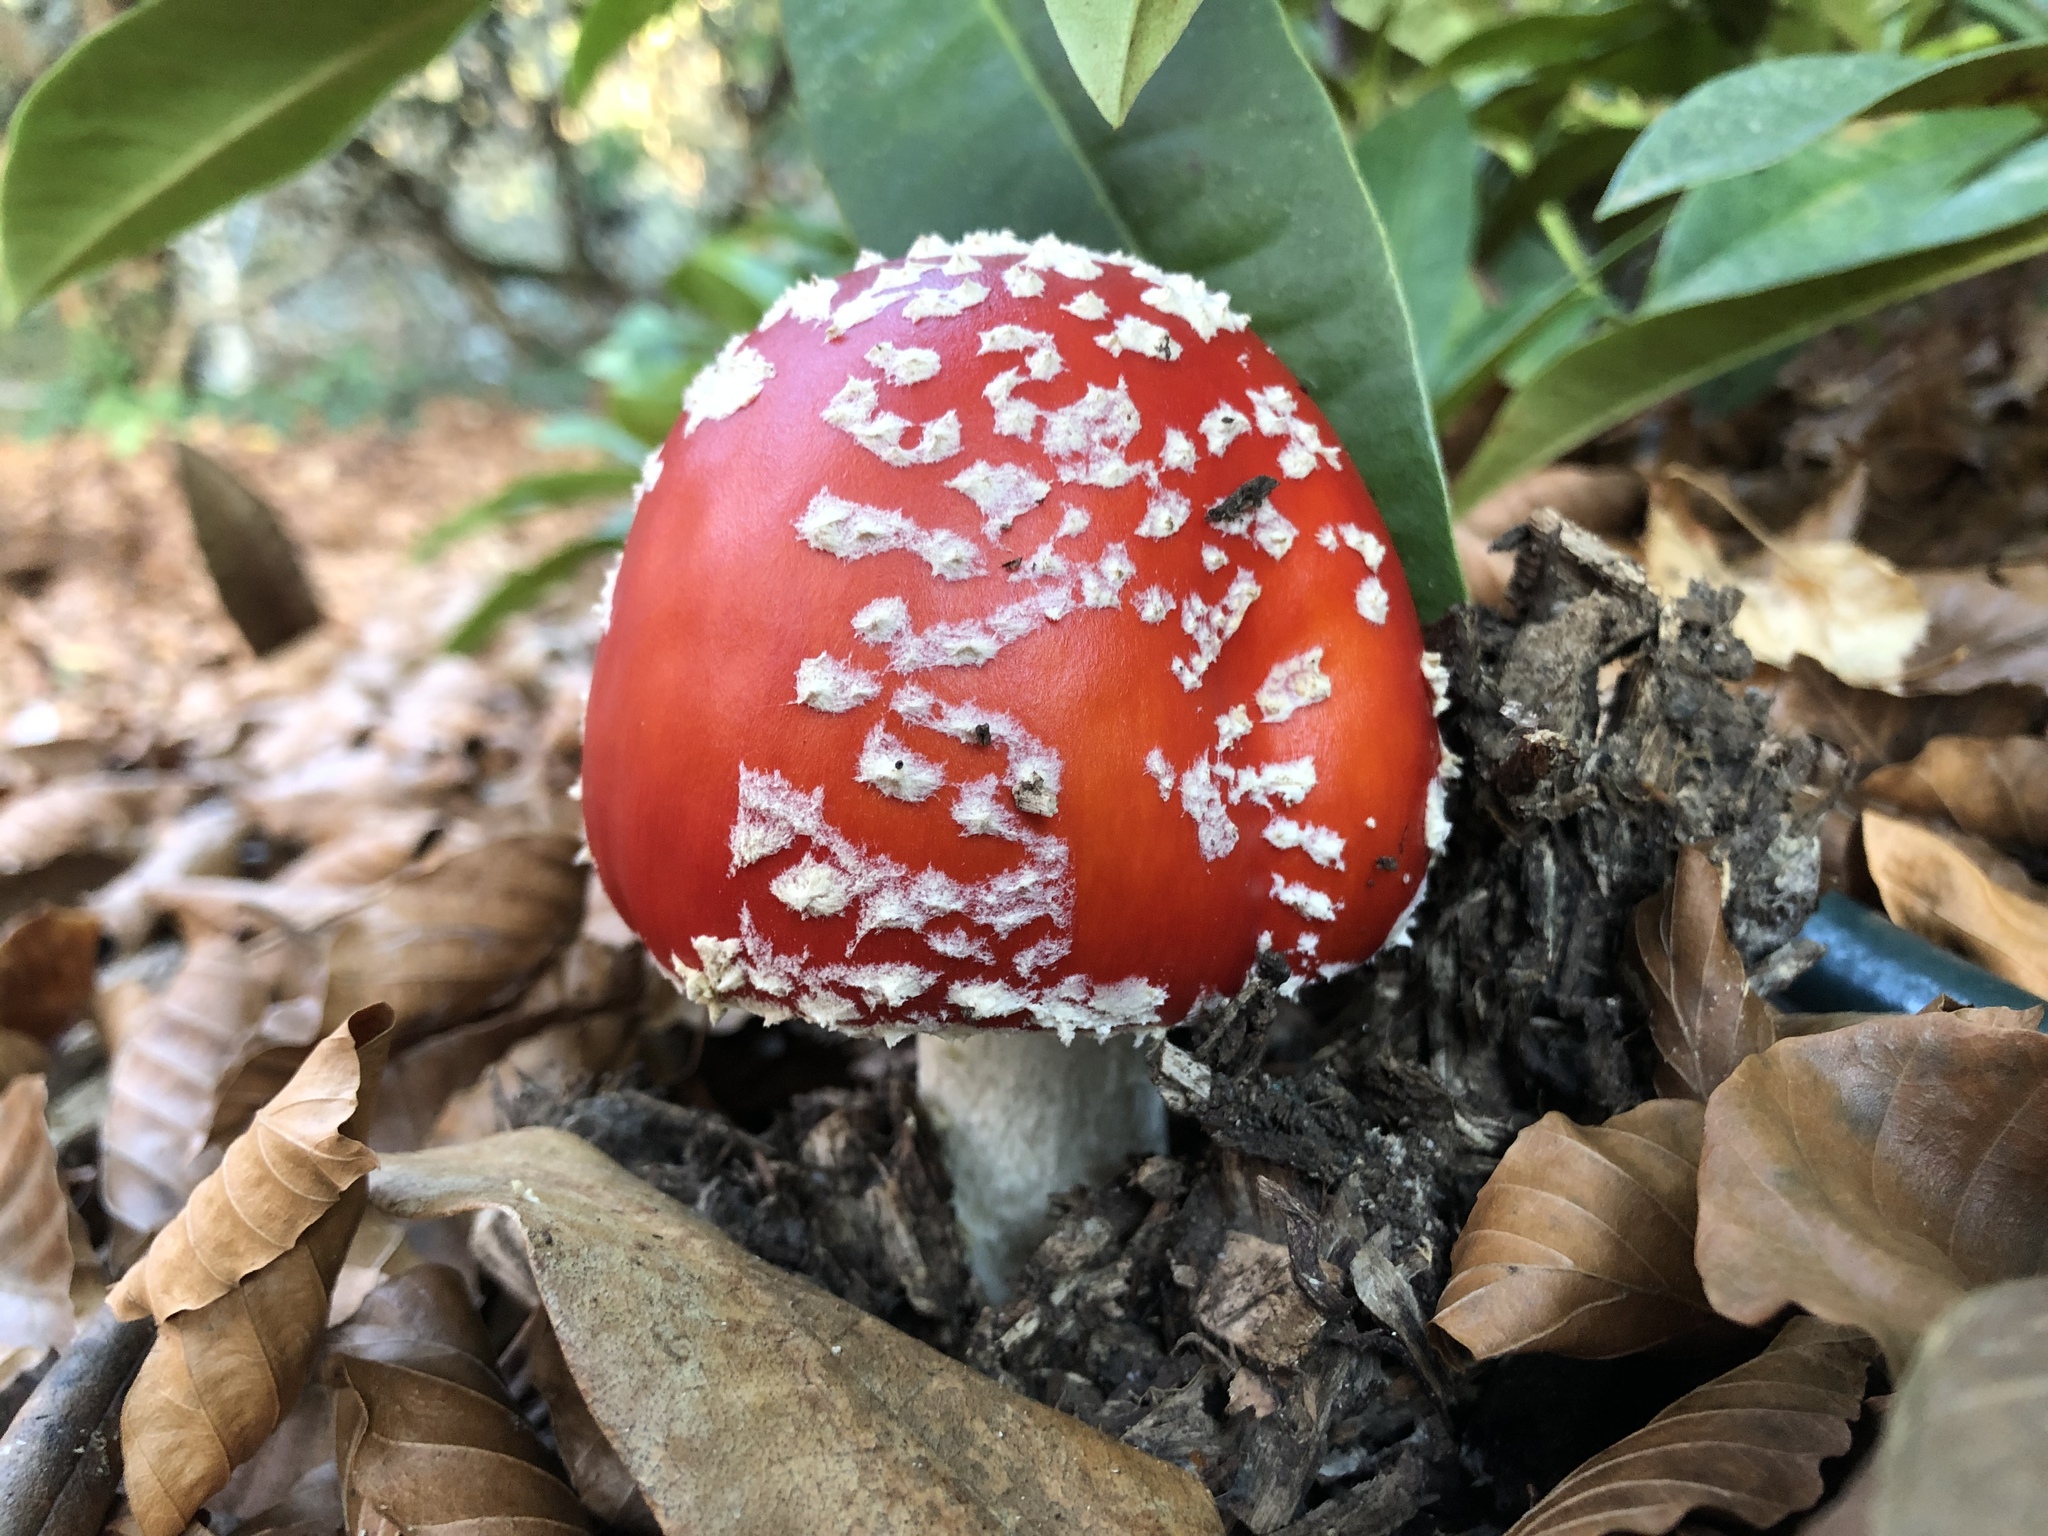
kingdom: Fungi
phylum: Basidiomycota
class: Agaricomycetes
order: Agaricales
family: Amanitaceae
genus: Amanita
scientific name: Amanita muscaria
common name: Fly agaric
